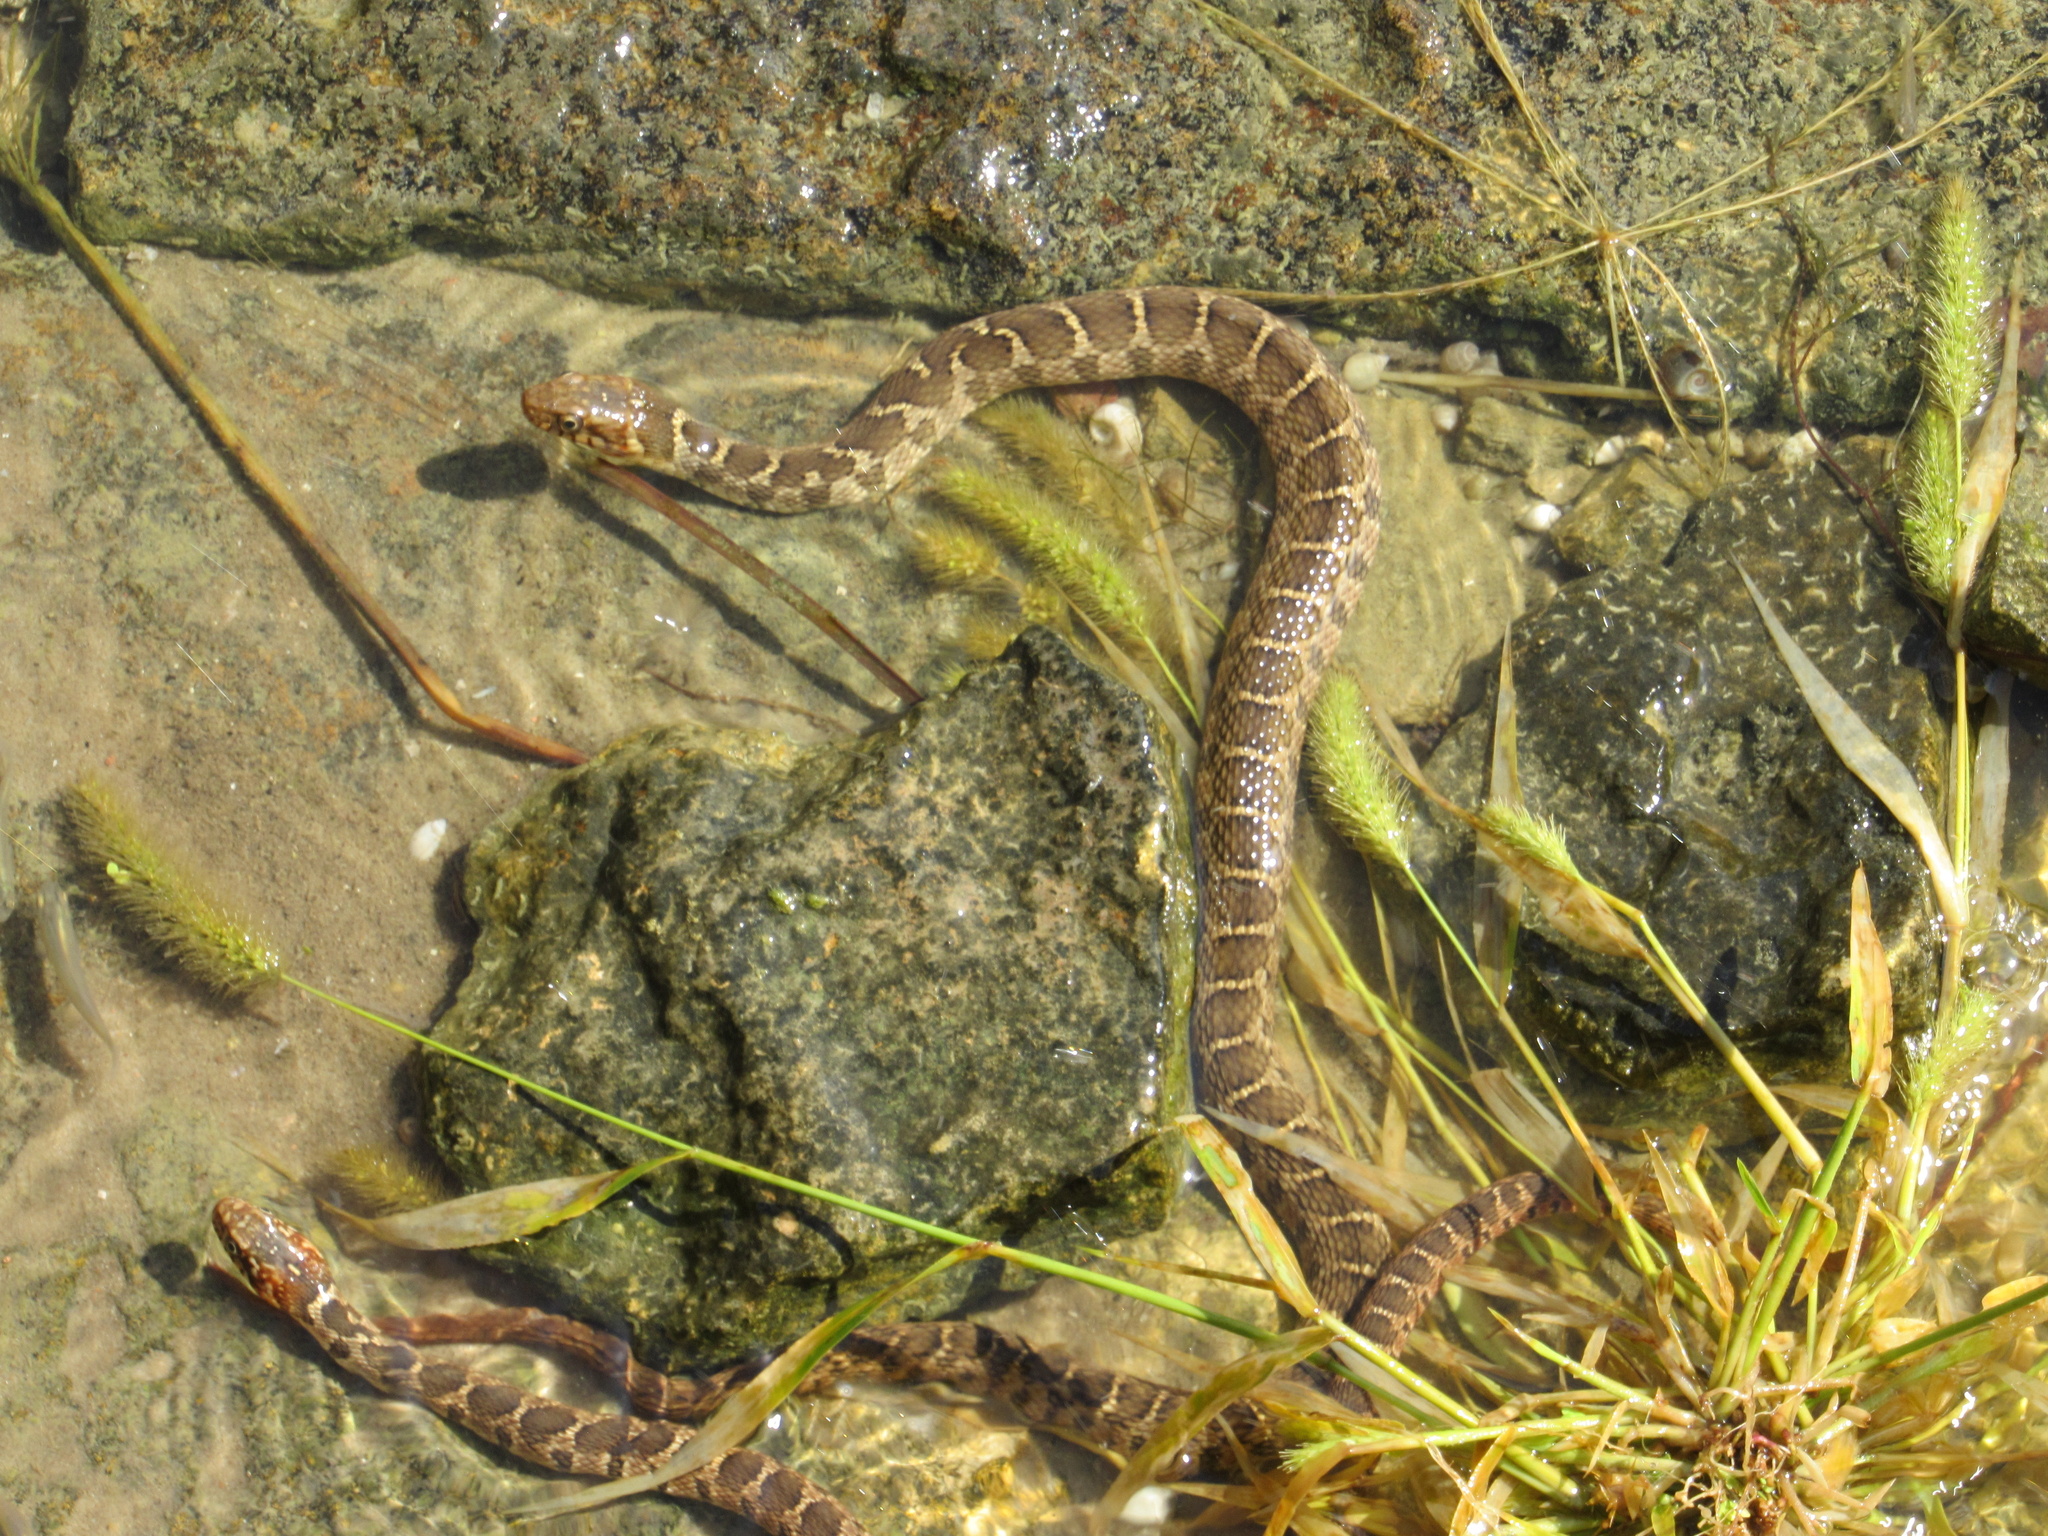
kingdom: Animalia
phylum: Chordata
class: Squamata
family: Colubridae
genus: Nerodia
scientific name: Nerodia erythrogaster
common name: Plainbelly water snake
